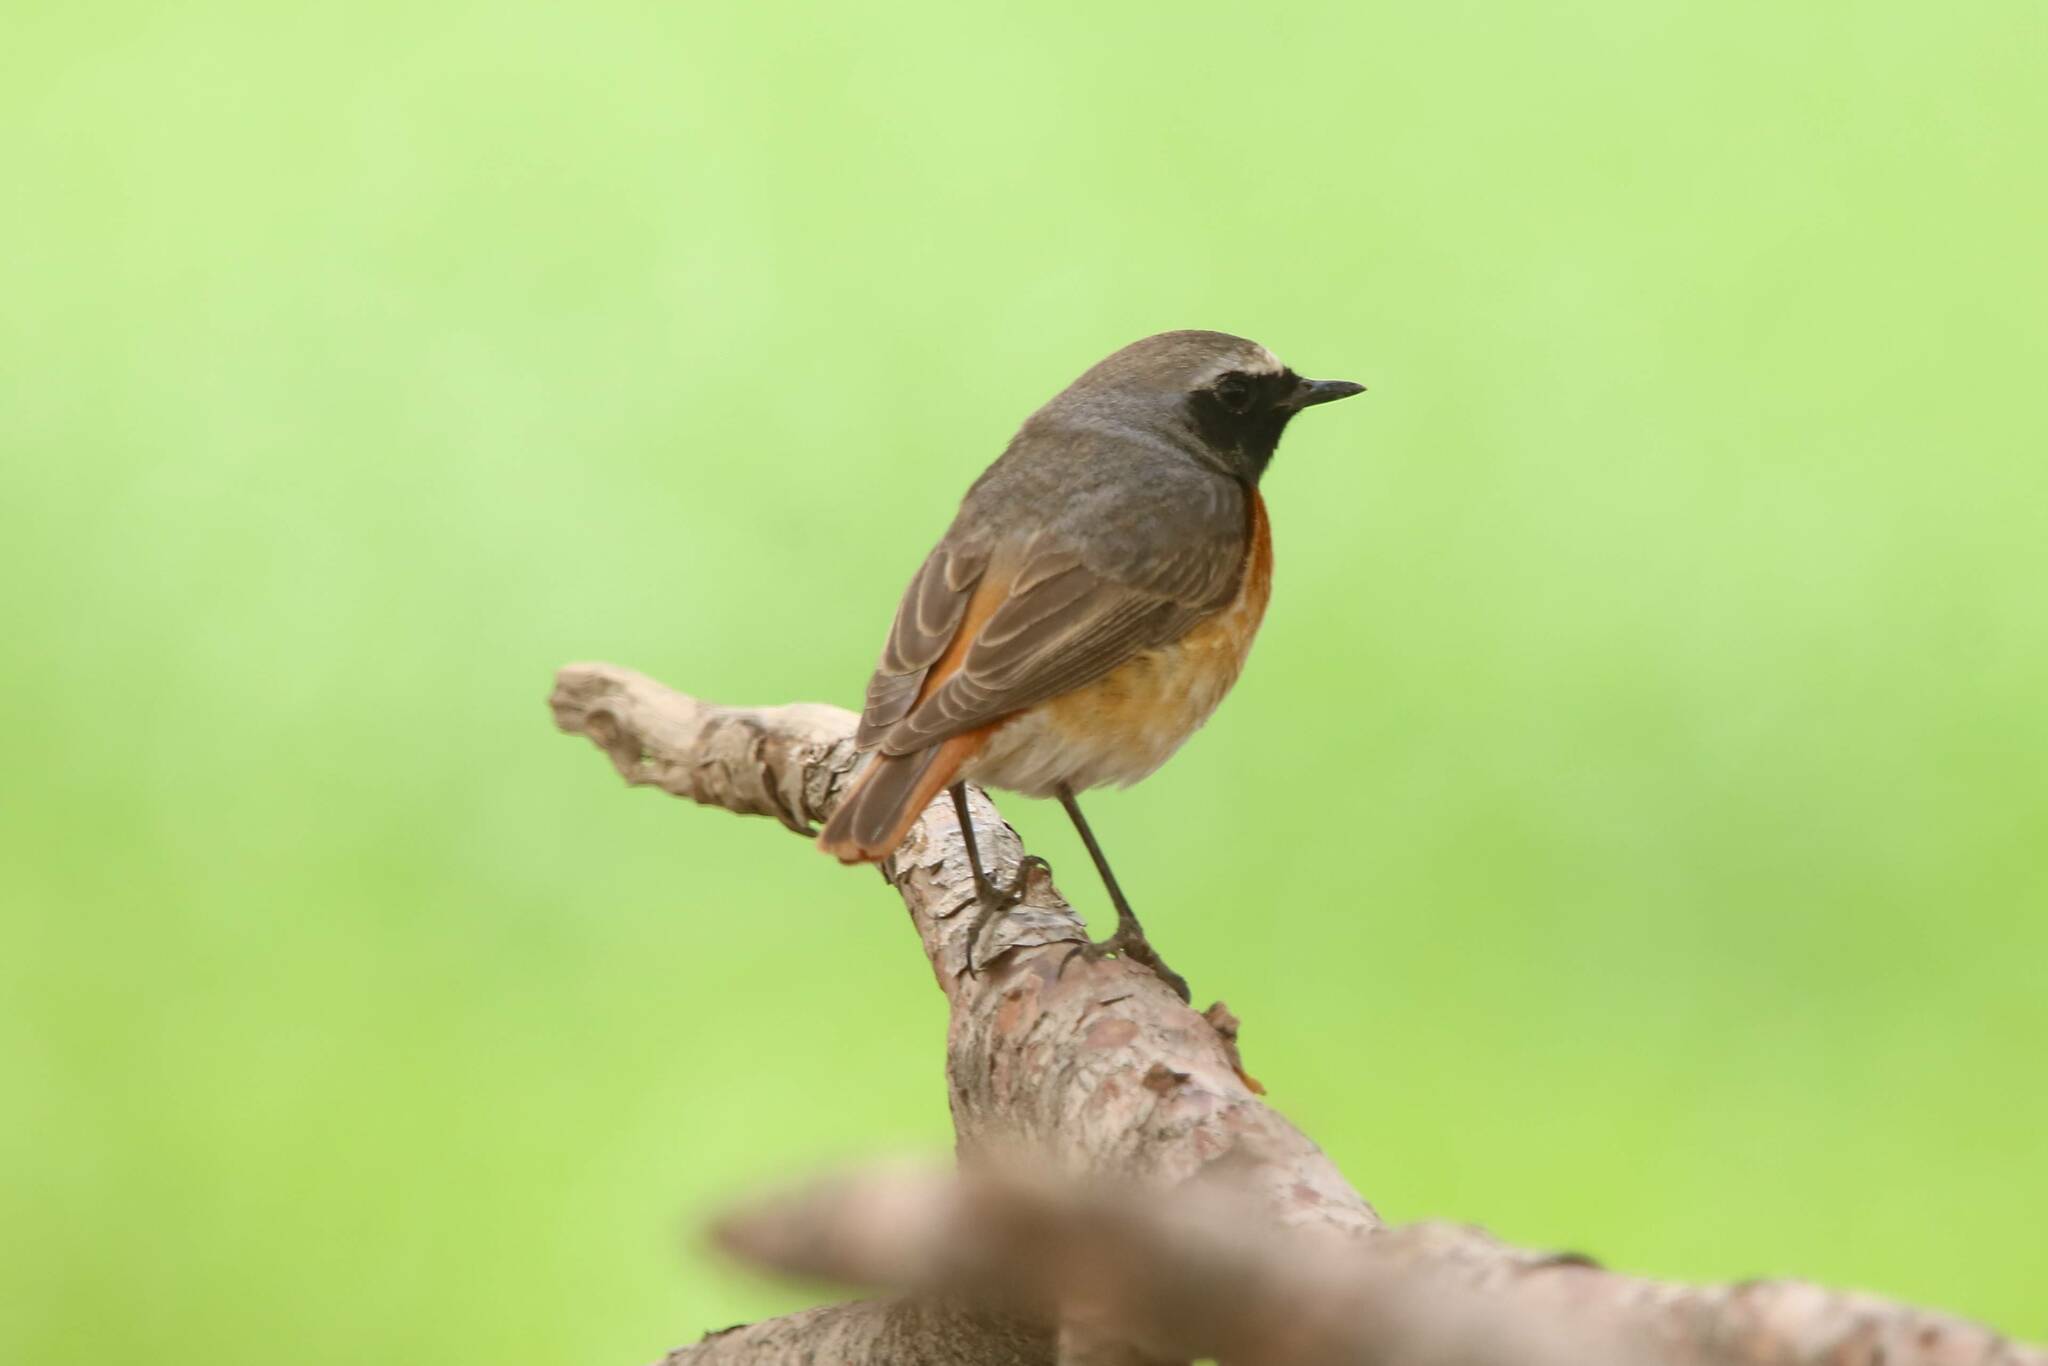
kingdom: Animalia
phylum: Chordata
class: Aves
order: Passeriformes
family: Muscicapidae
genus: Phoenicurus
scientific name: Phoenicurus phoenicurus
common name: Common redstart
